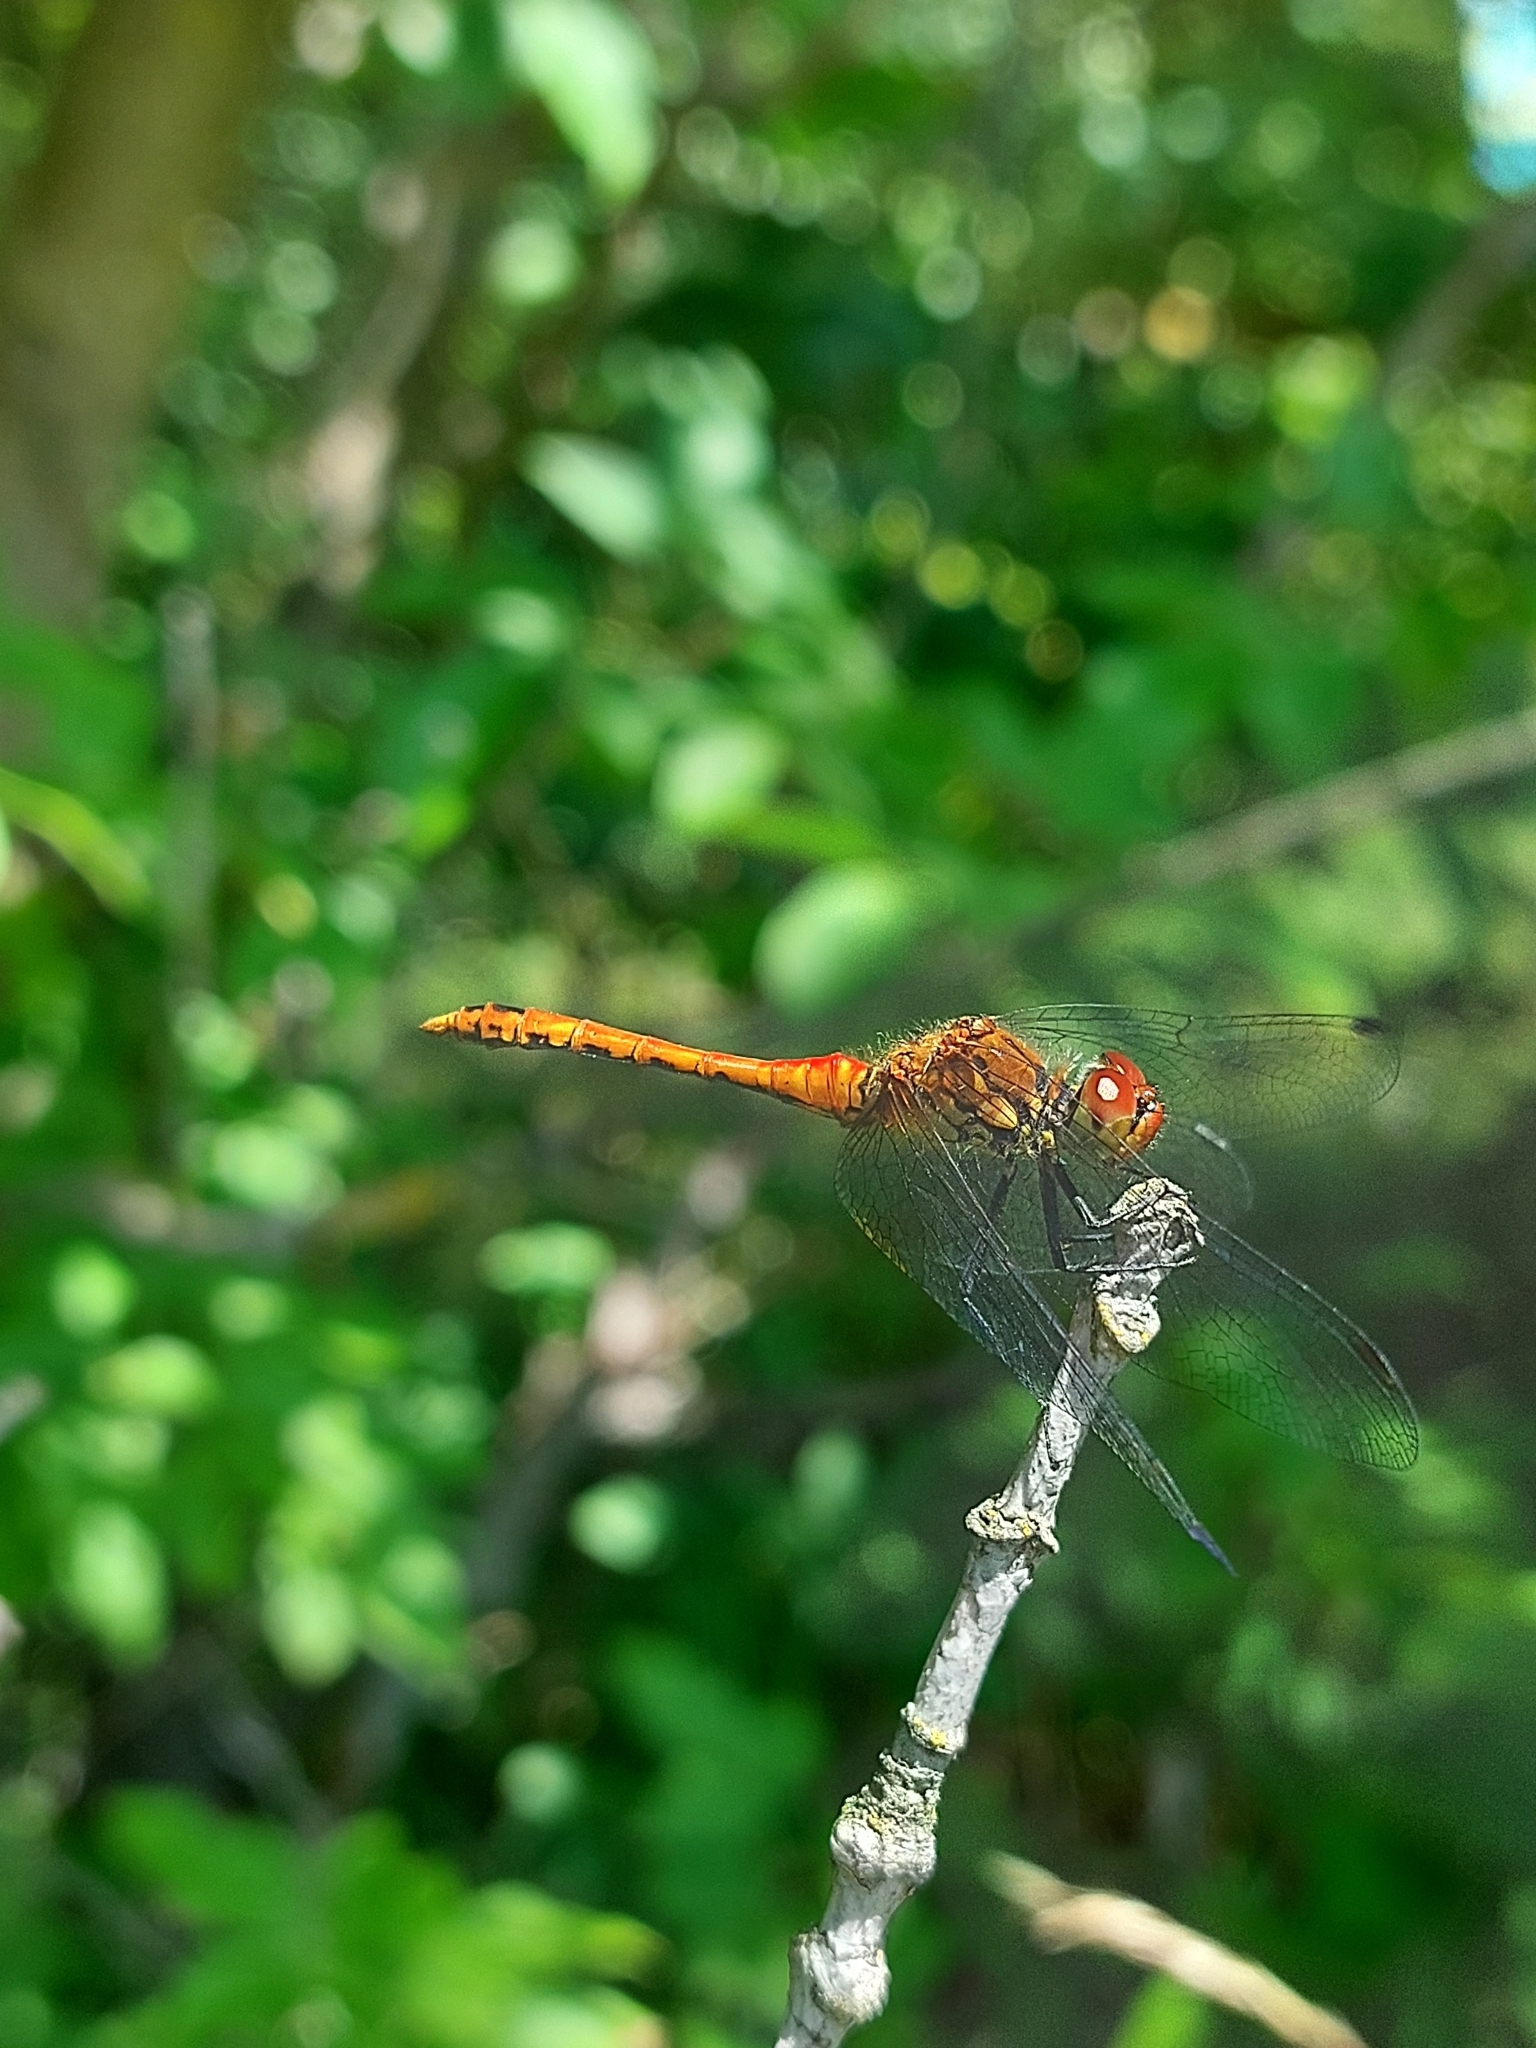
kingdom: Animalia
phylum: Arthropoda
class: Insecta
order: Odonata
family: Libellulidae
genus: Sympetrum
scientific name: Sympetrum sanguineum
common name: Ruddy darter
